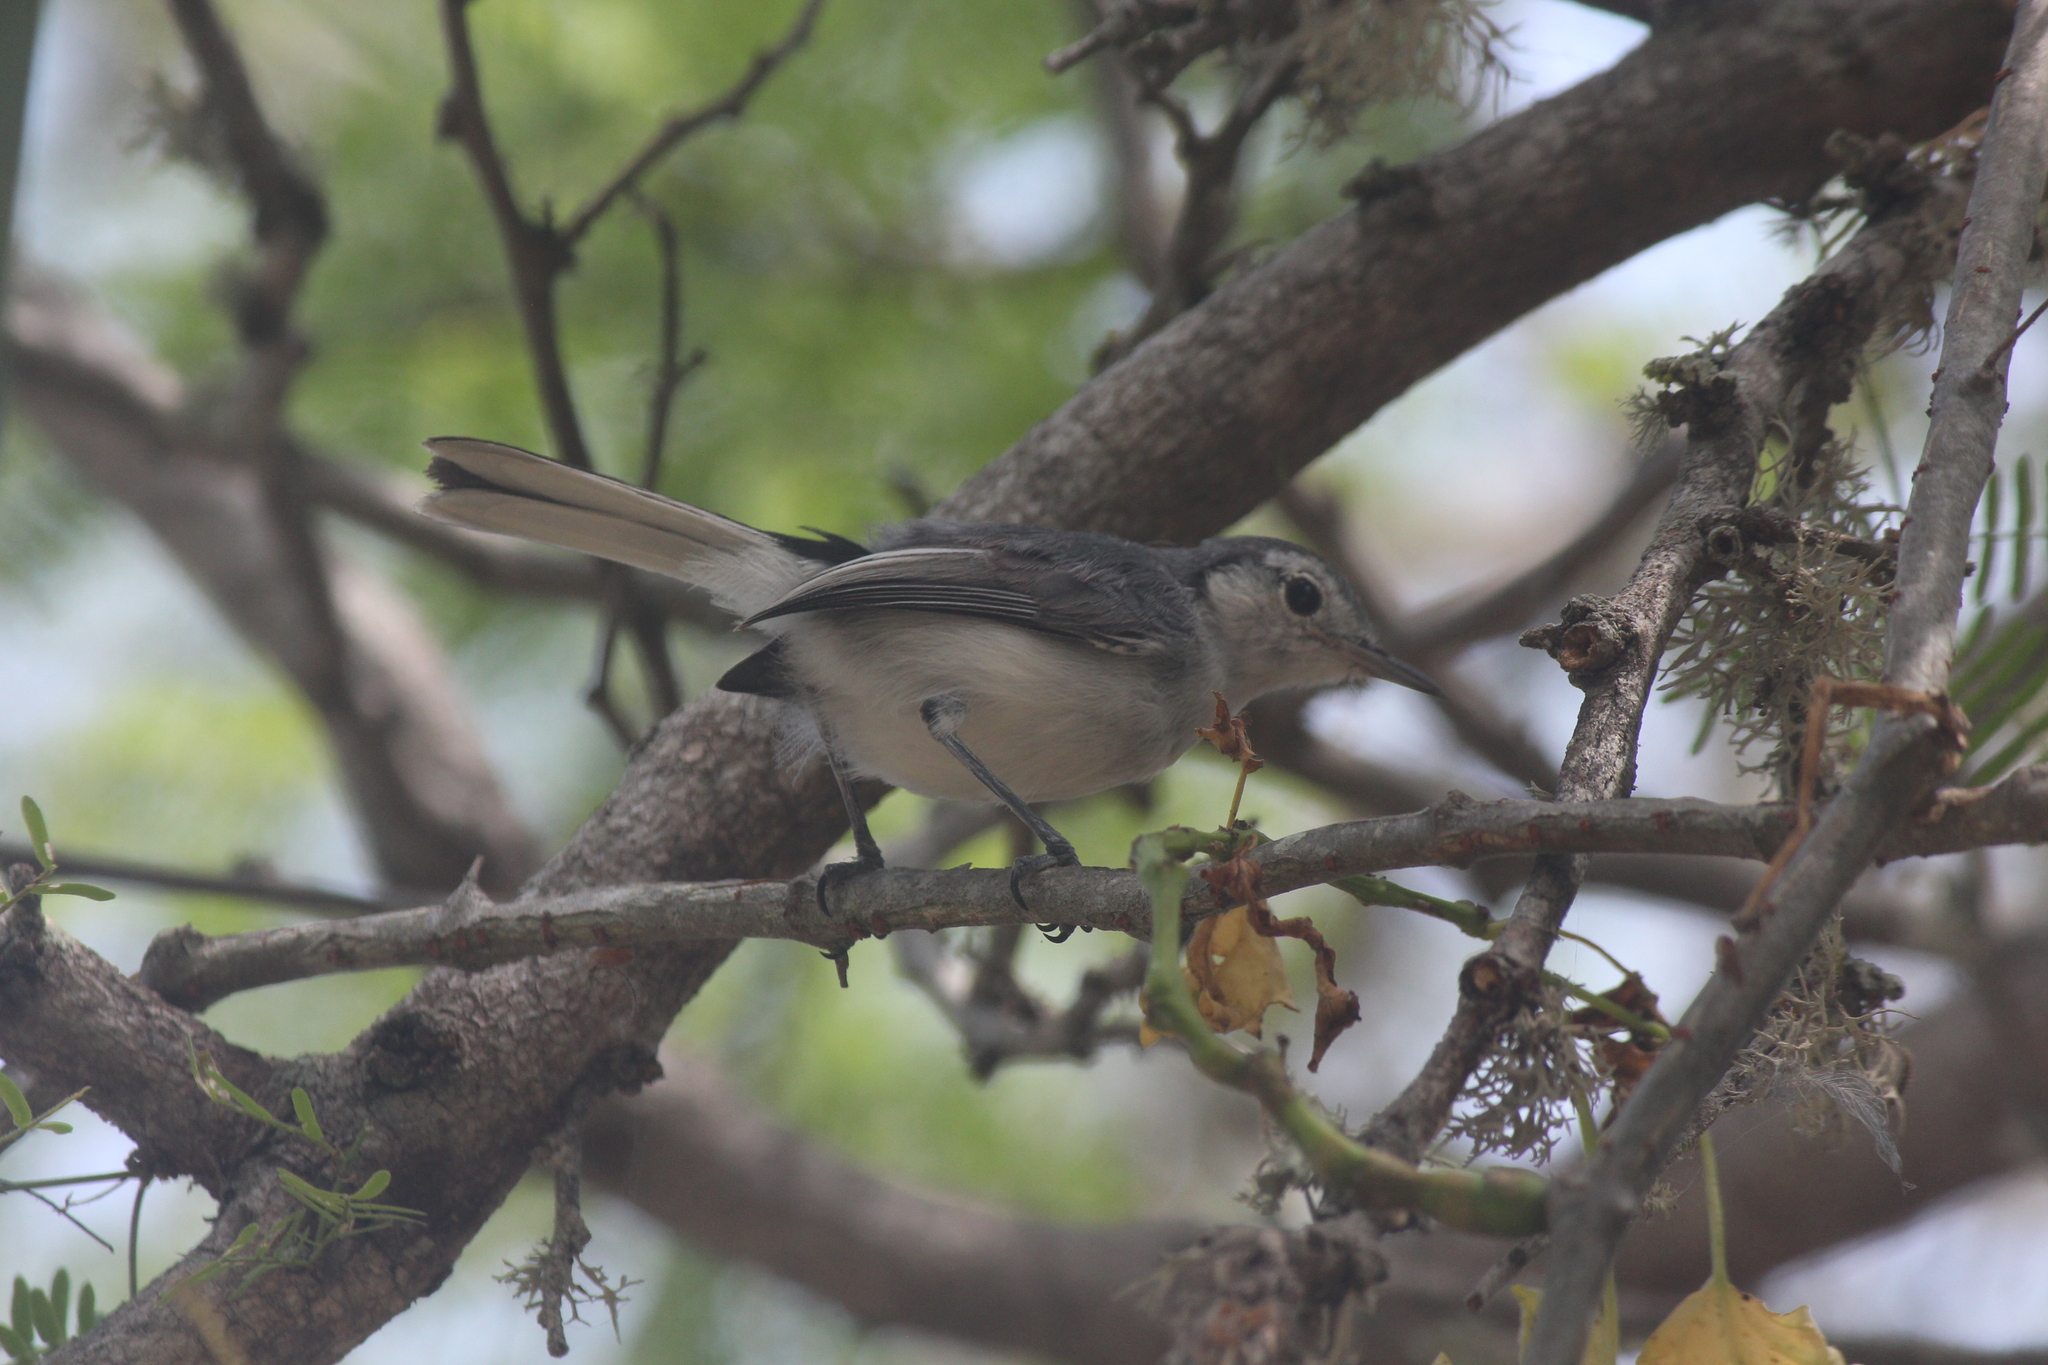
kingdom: Animalia
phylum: Chordata
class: Aves
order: Passeriformes
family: Polioptilidae
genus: Polioptila
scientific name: Polioptila plumbea
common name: Tropical gnatcatcher
